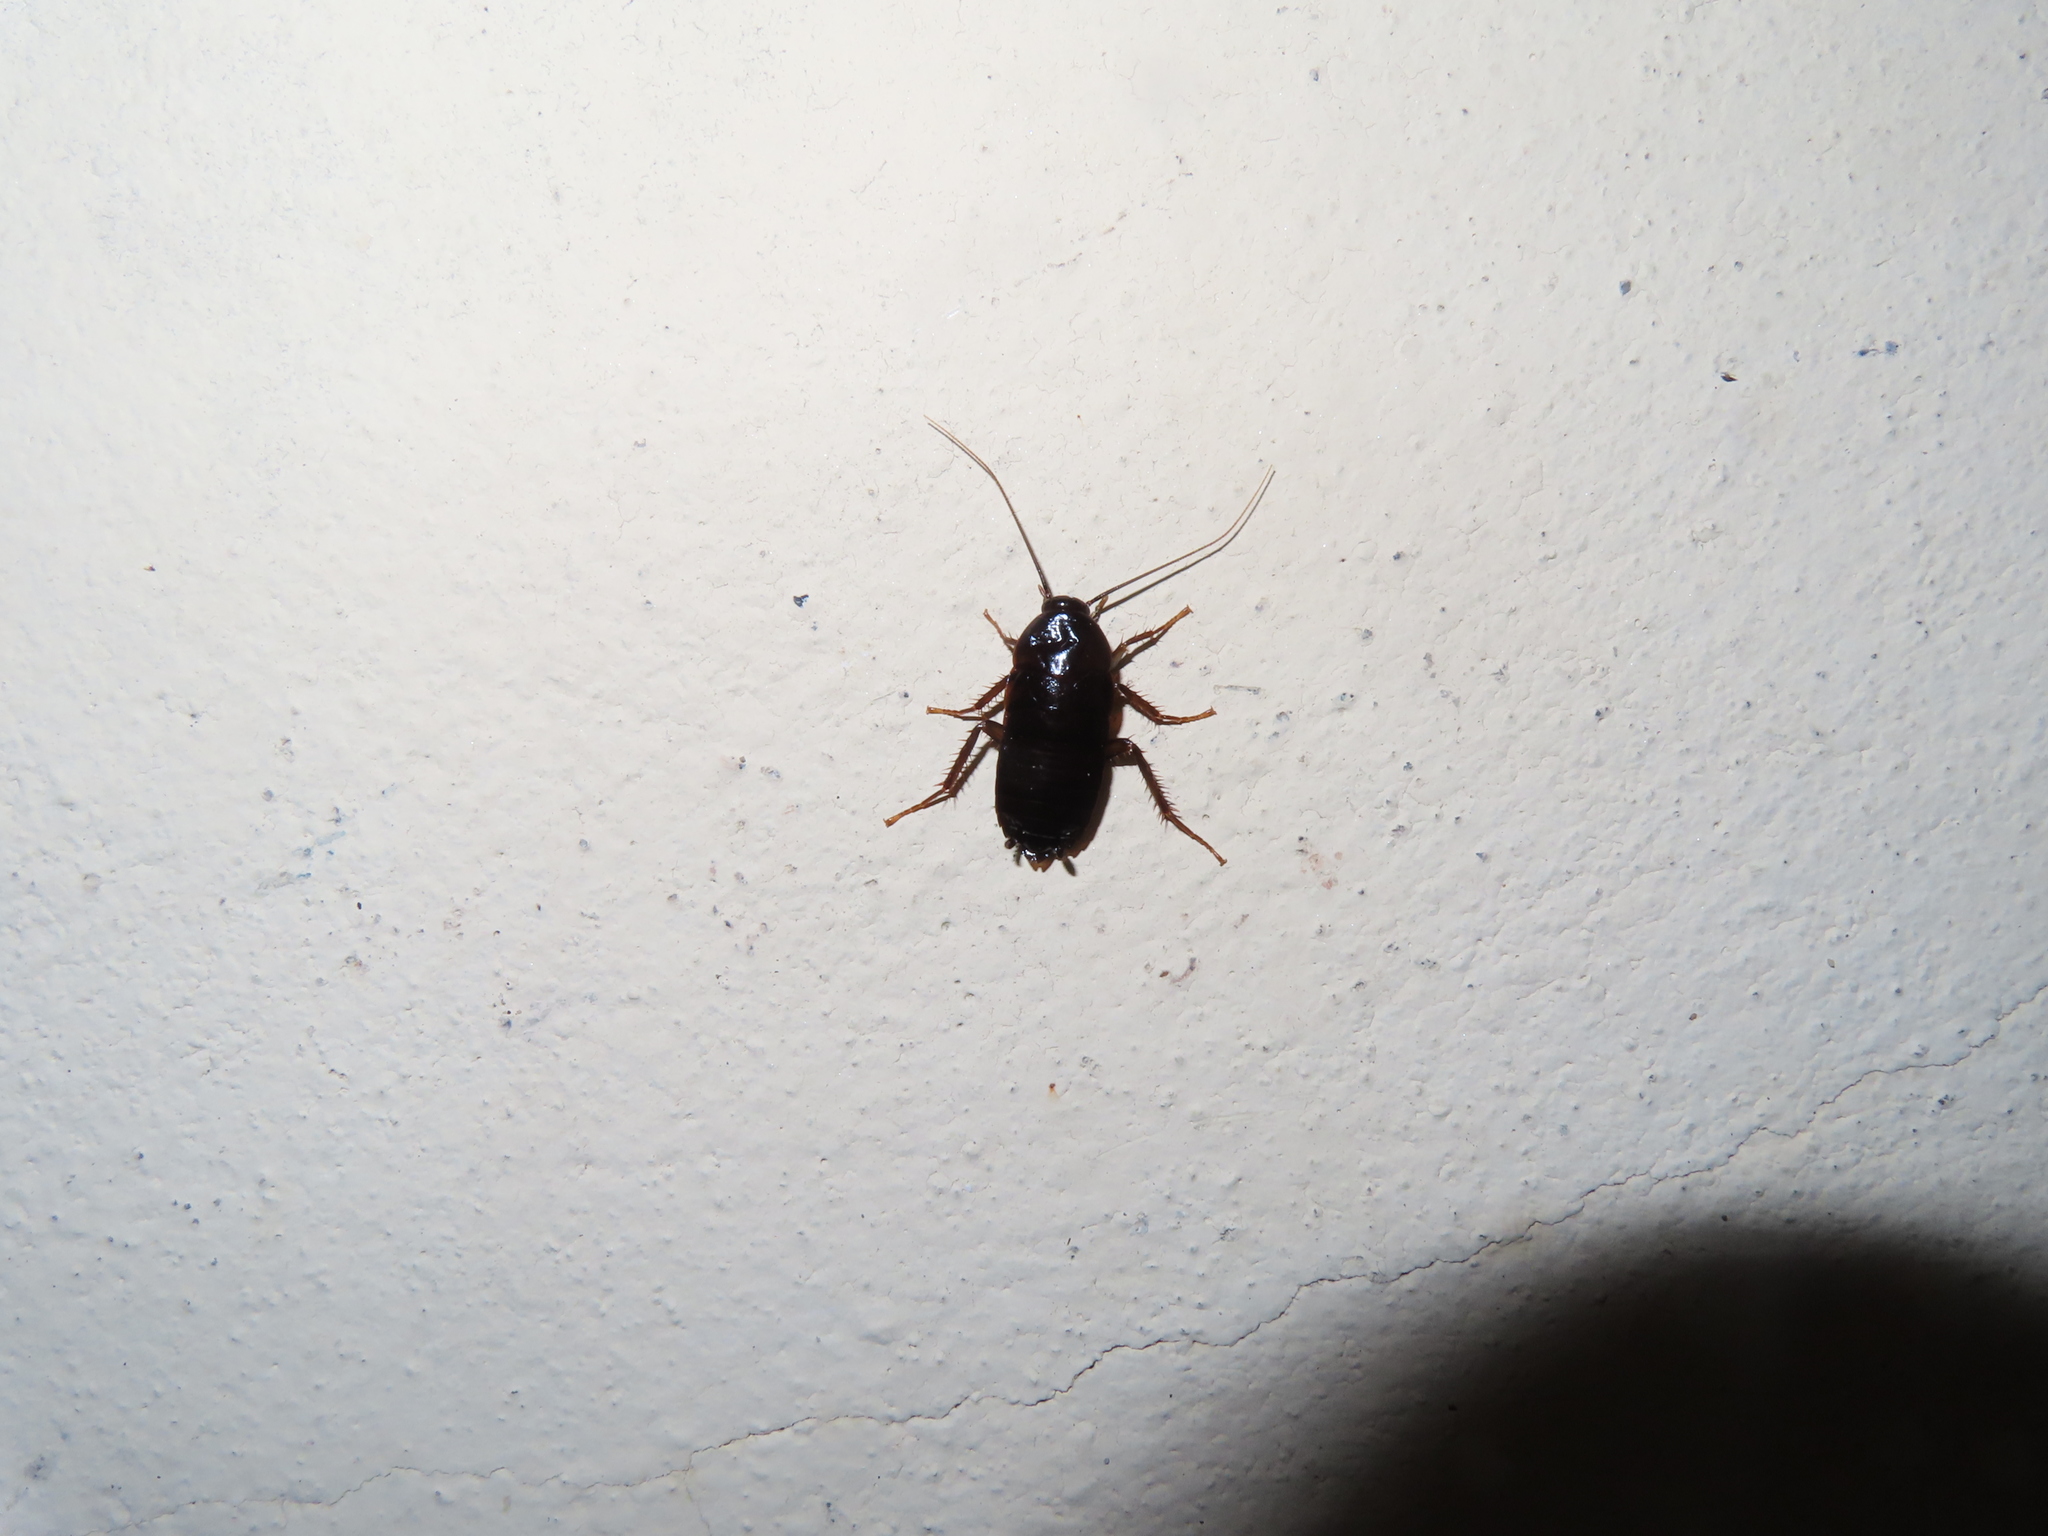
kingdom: Animalia
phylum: Arthropoda
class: Insecta
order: Blattodea
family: Blattidae
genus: Blatta
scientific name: Blatta orientalis
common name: Oriental cockroach
